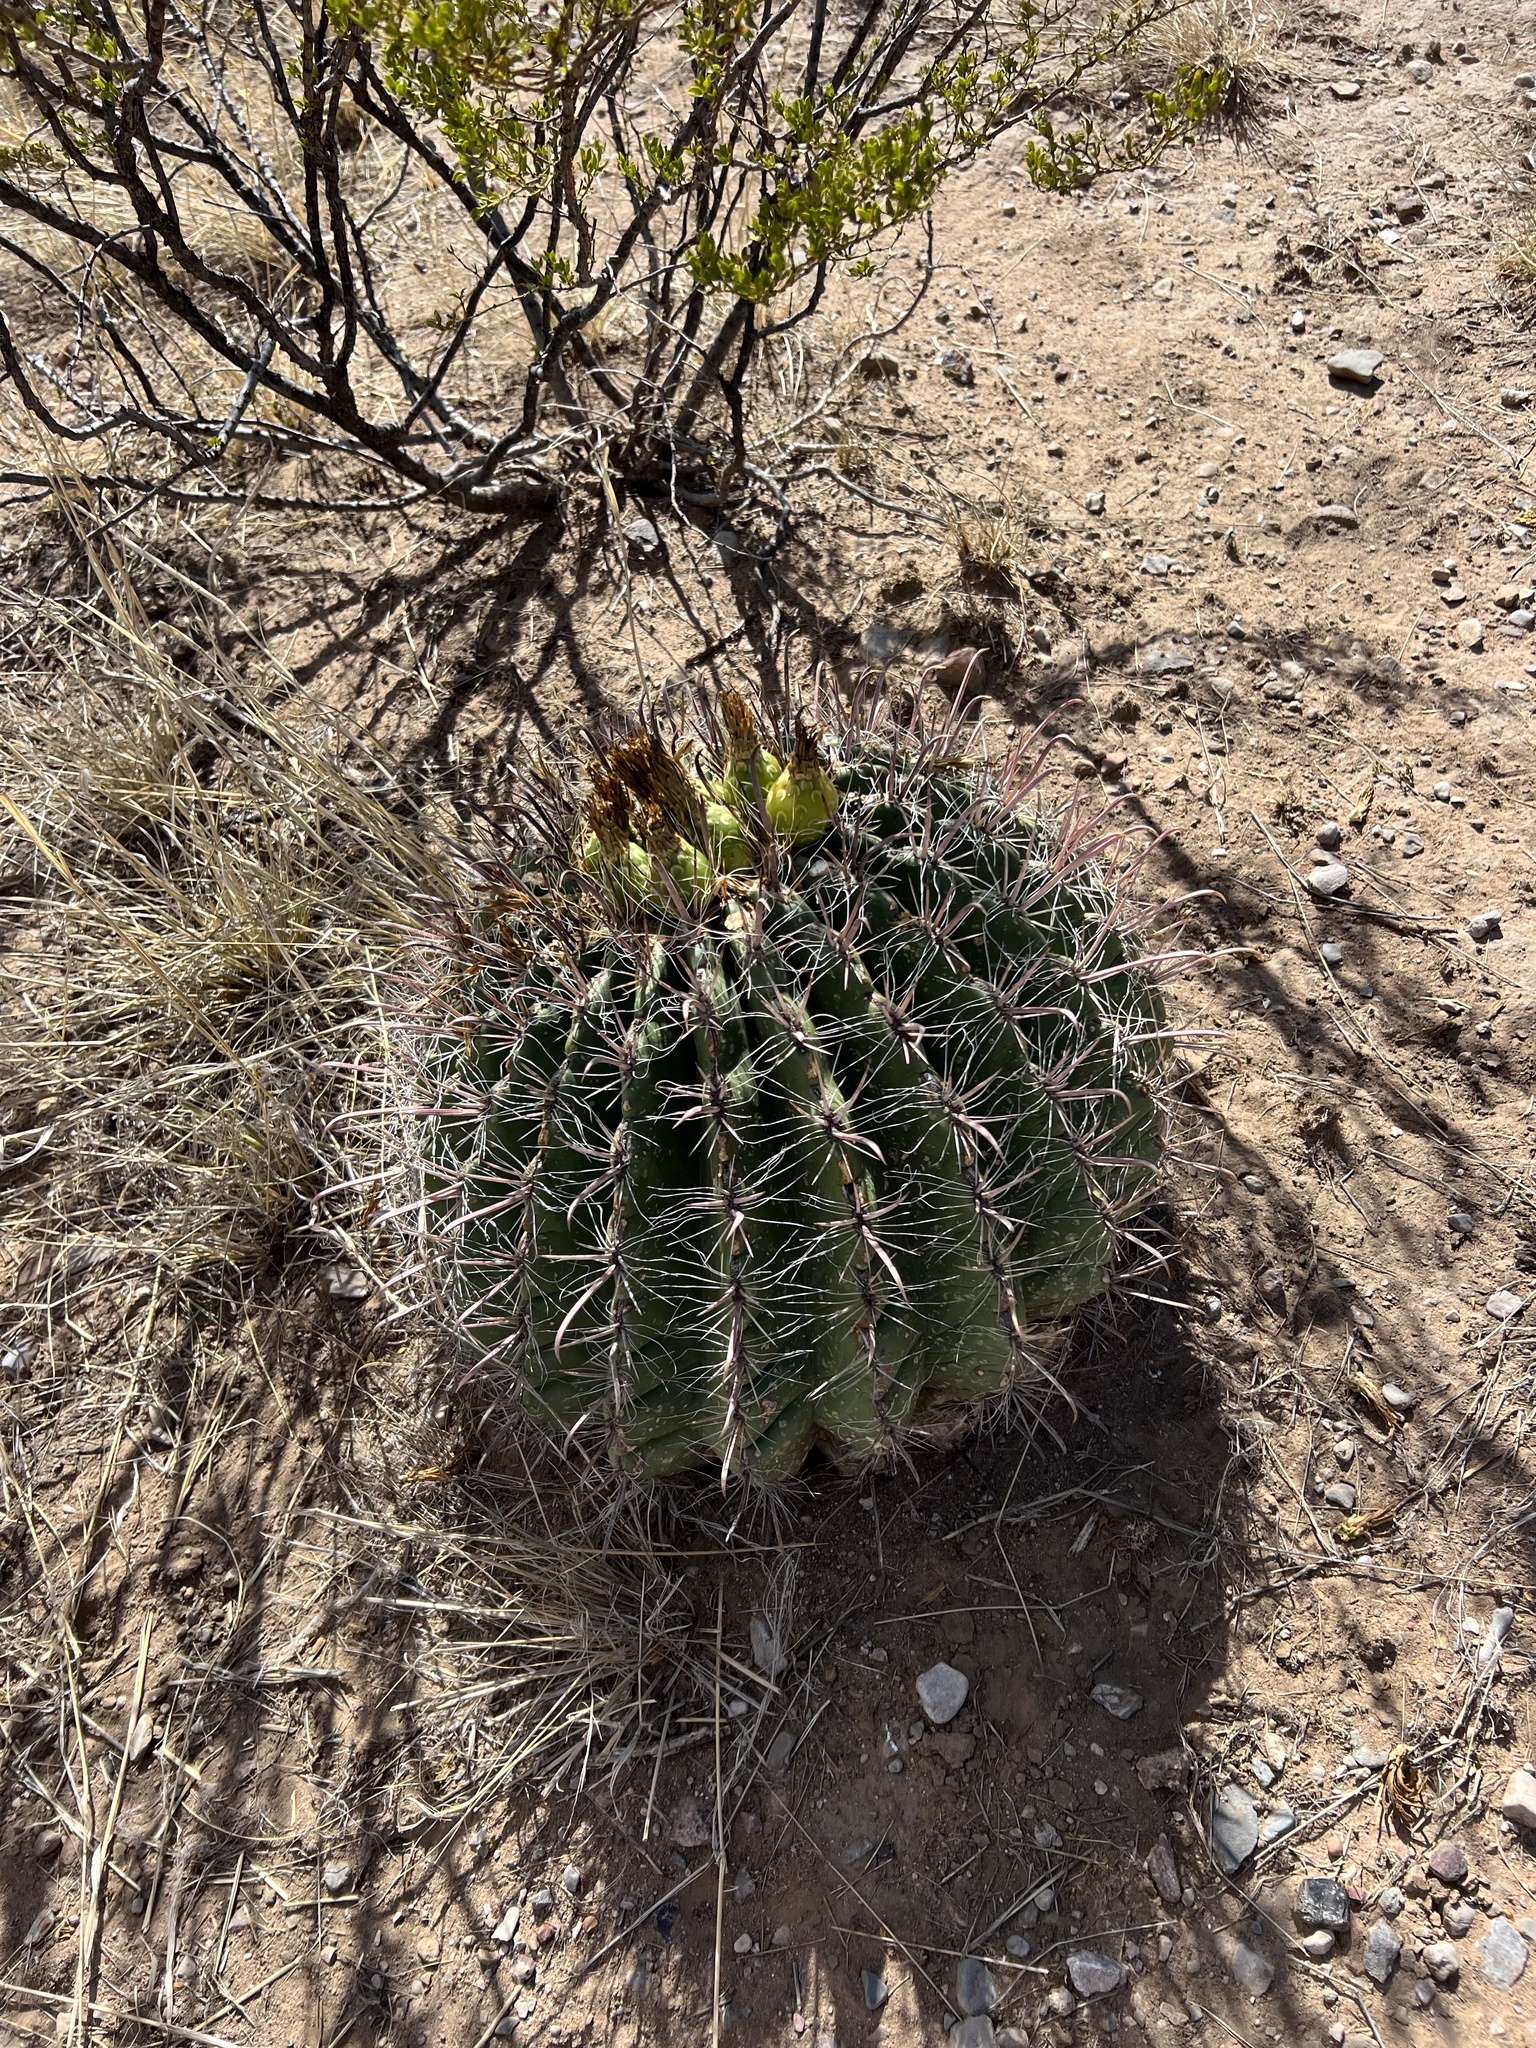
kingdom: Plantae
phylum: Tracheophyta
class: Magnoliopsida
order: Caryophyllales
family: Cactaceae
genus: Ferocactus
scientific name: Ferocactus wislizeni
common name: Candy barrel cactus
